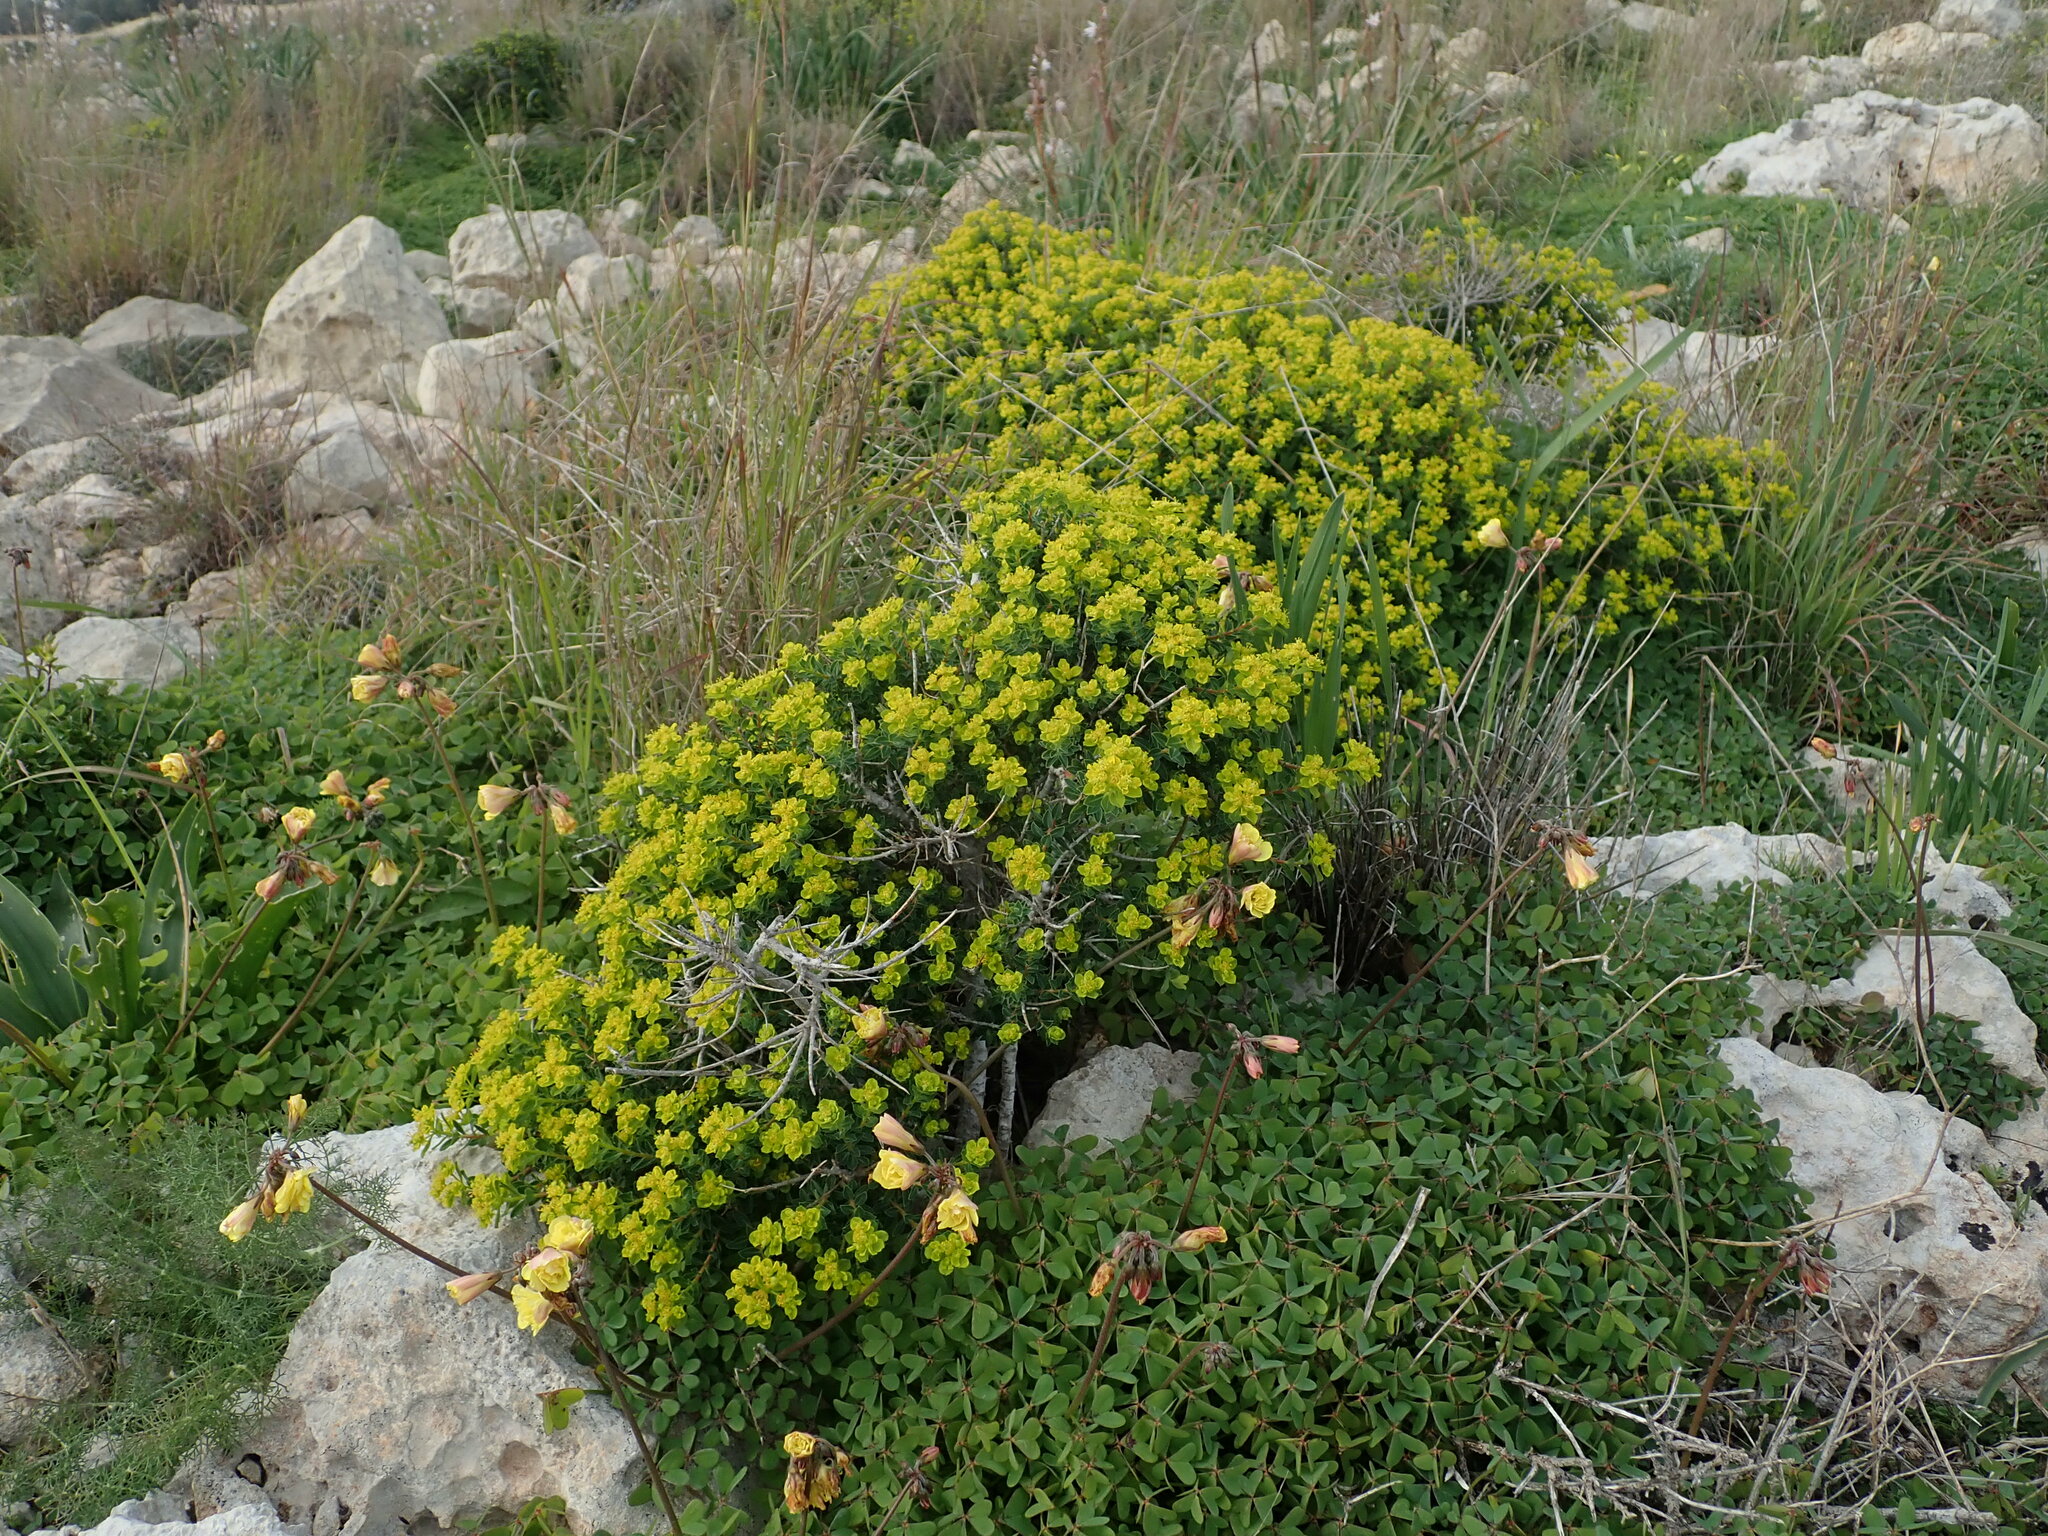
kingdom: Plantae
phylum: Tracheophyta
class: Magnoliopsida
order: Malpighiales
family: Euphorbiaceae
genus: Euphorbia
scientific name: Euphorbia melitensis
